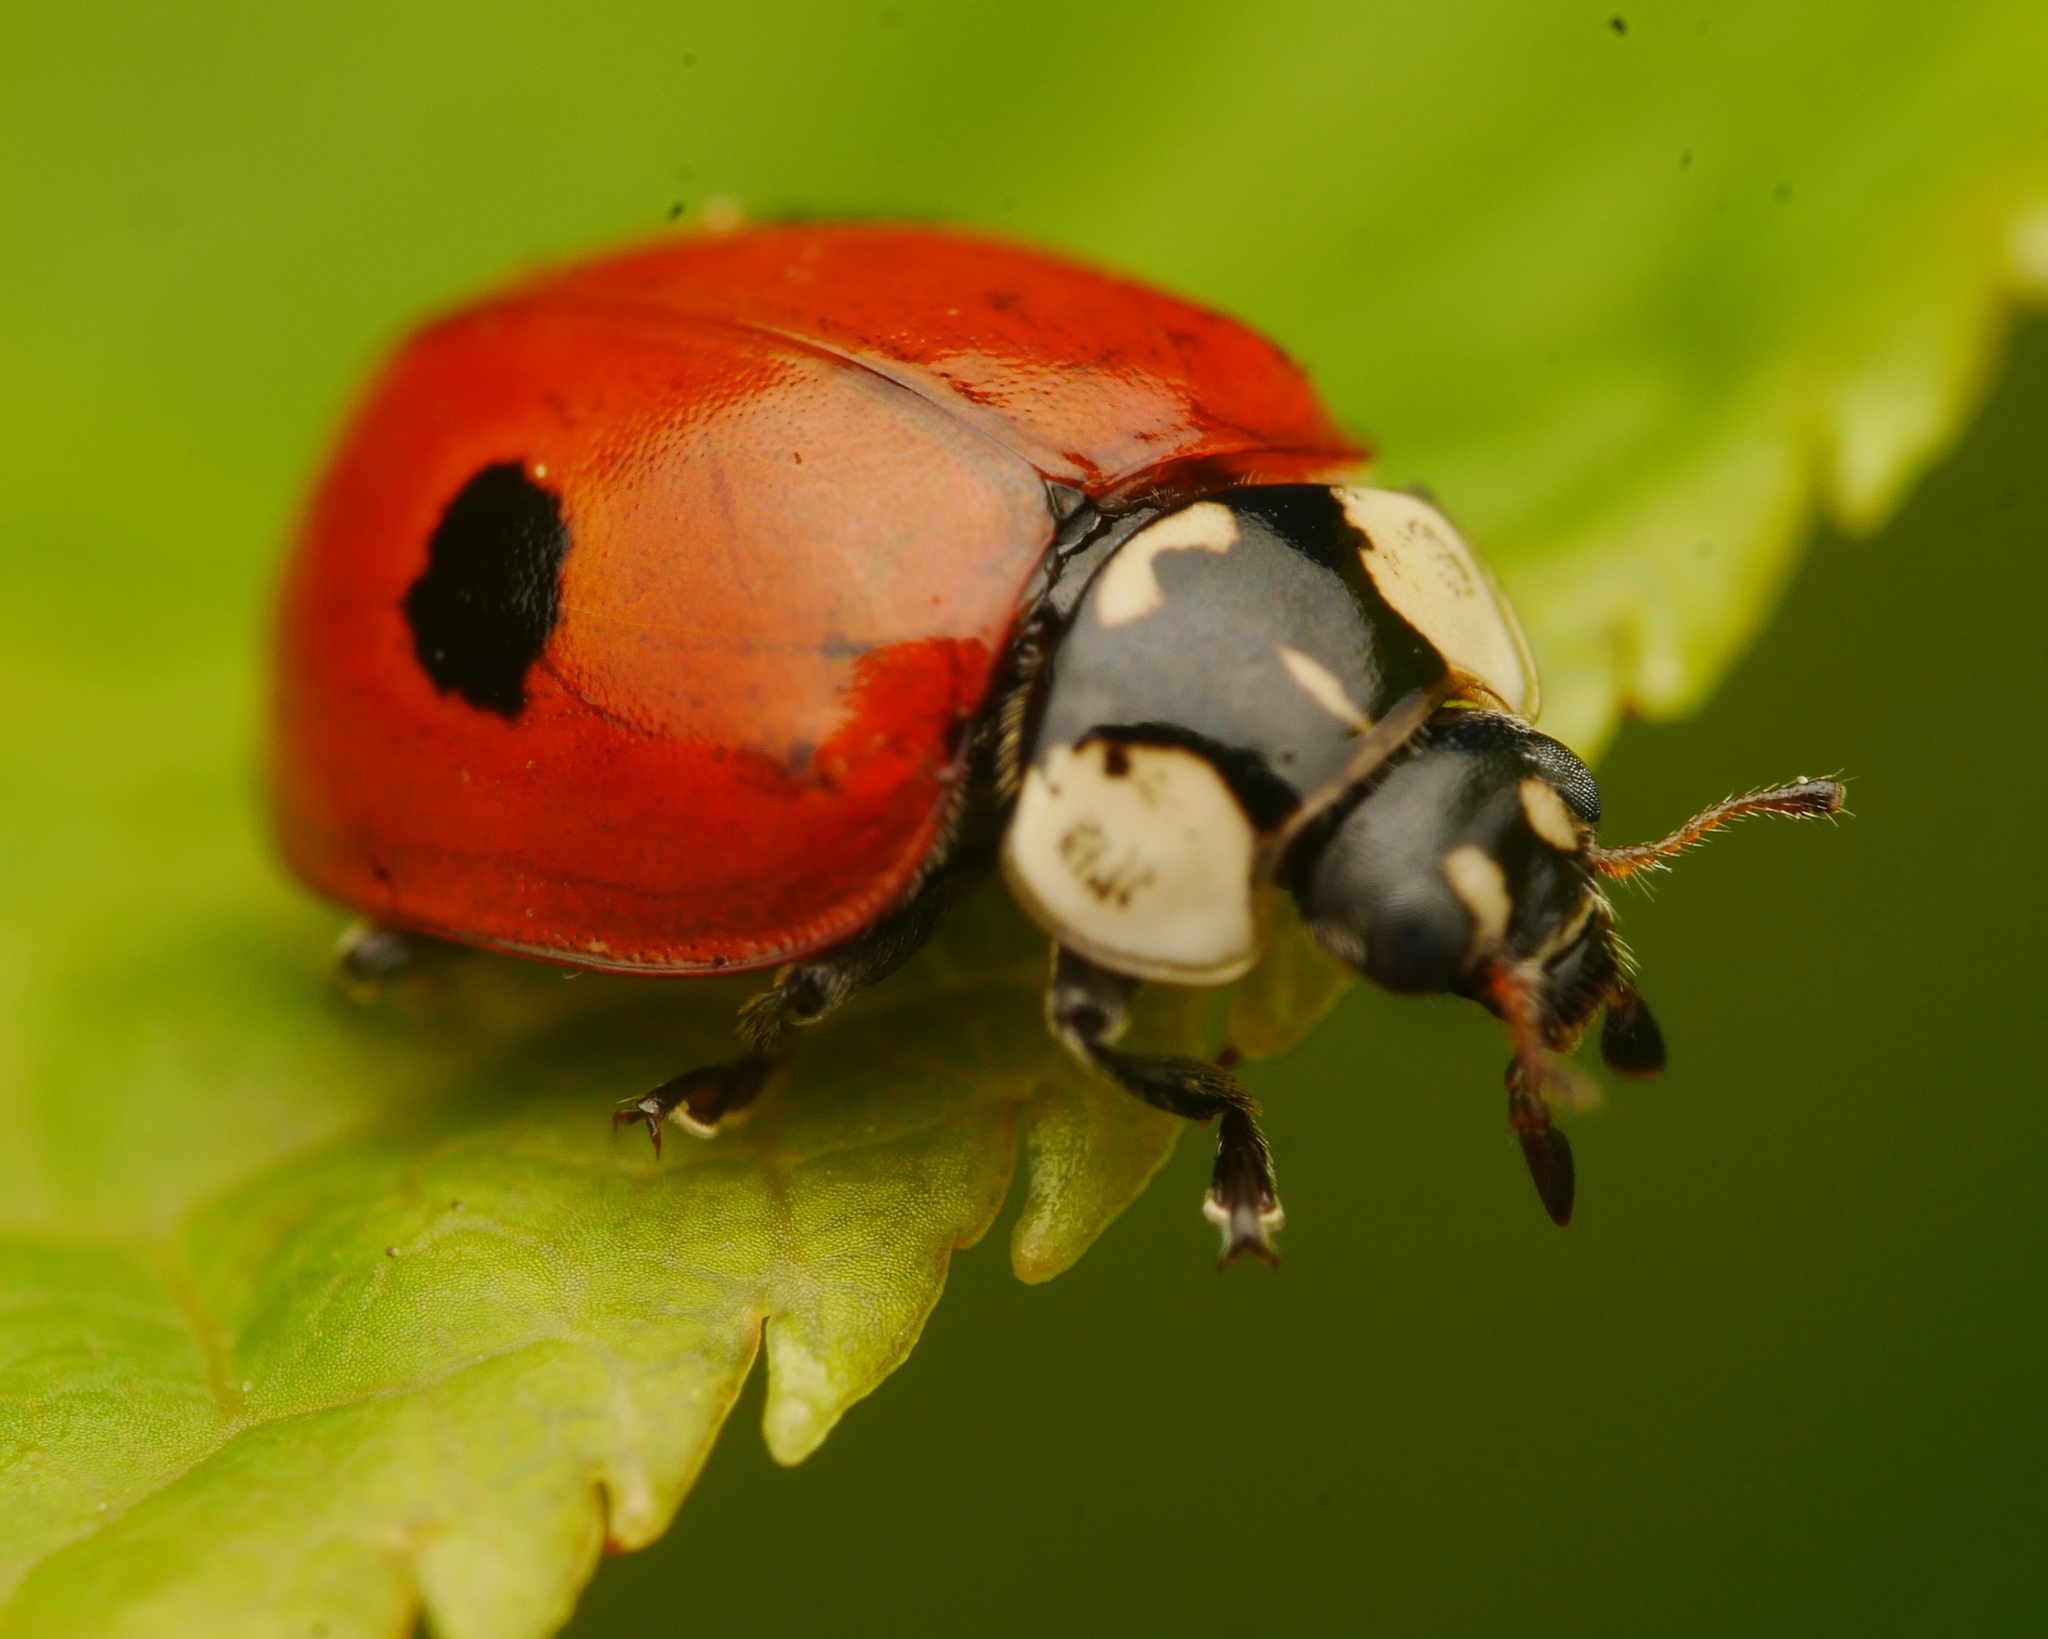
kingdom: Animalia
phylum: Arthropoda
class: Insecta
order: Coleoptera
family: Coccinellidae
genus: Adalia
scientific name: Adalia bipunctata
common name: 2-spot ladybird
